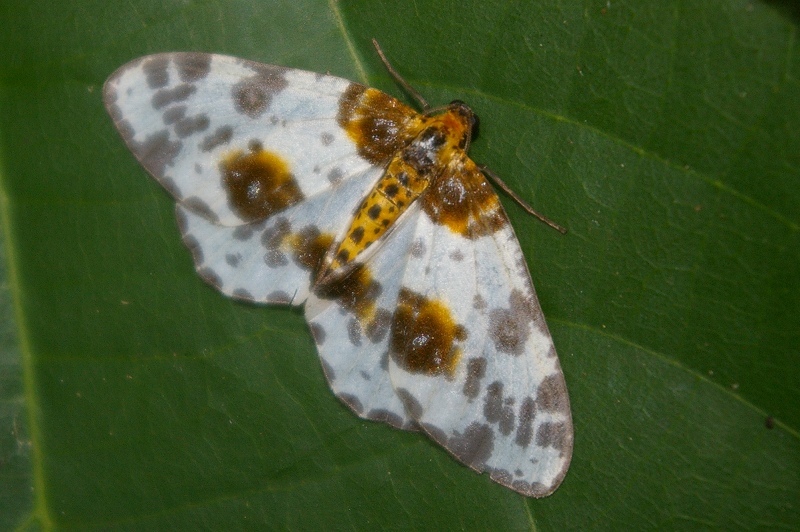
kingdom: Animalia
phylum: Arthropoda
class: Insecta
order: Lepidoptera
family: Geometridae
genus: Abraxas
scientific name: Abraxas niphonibia
